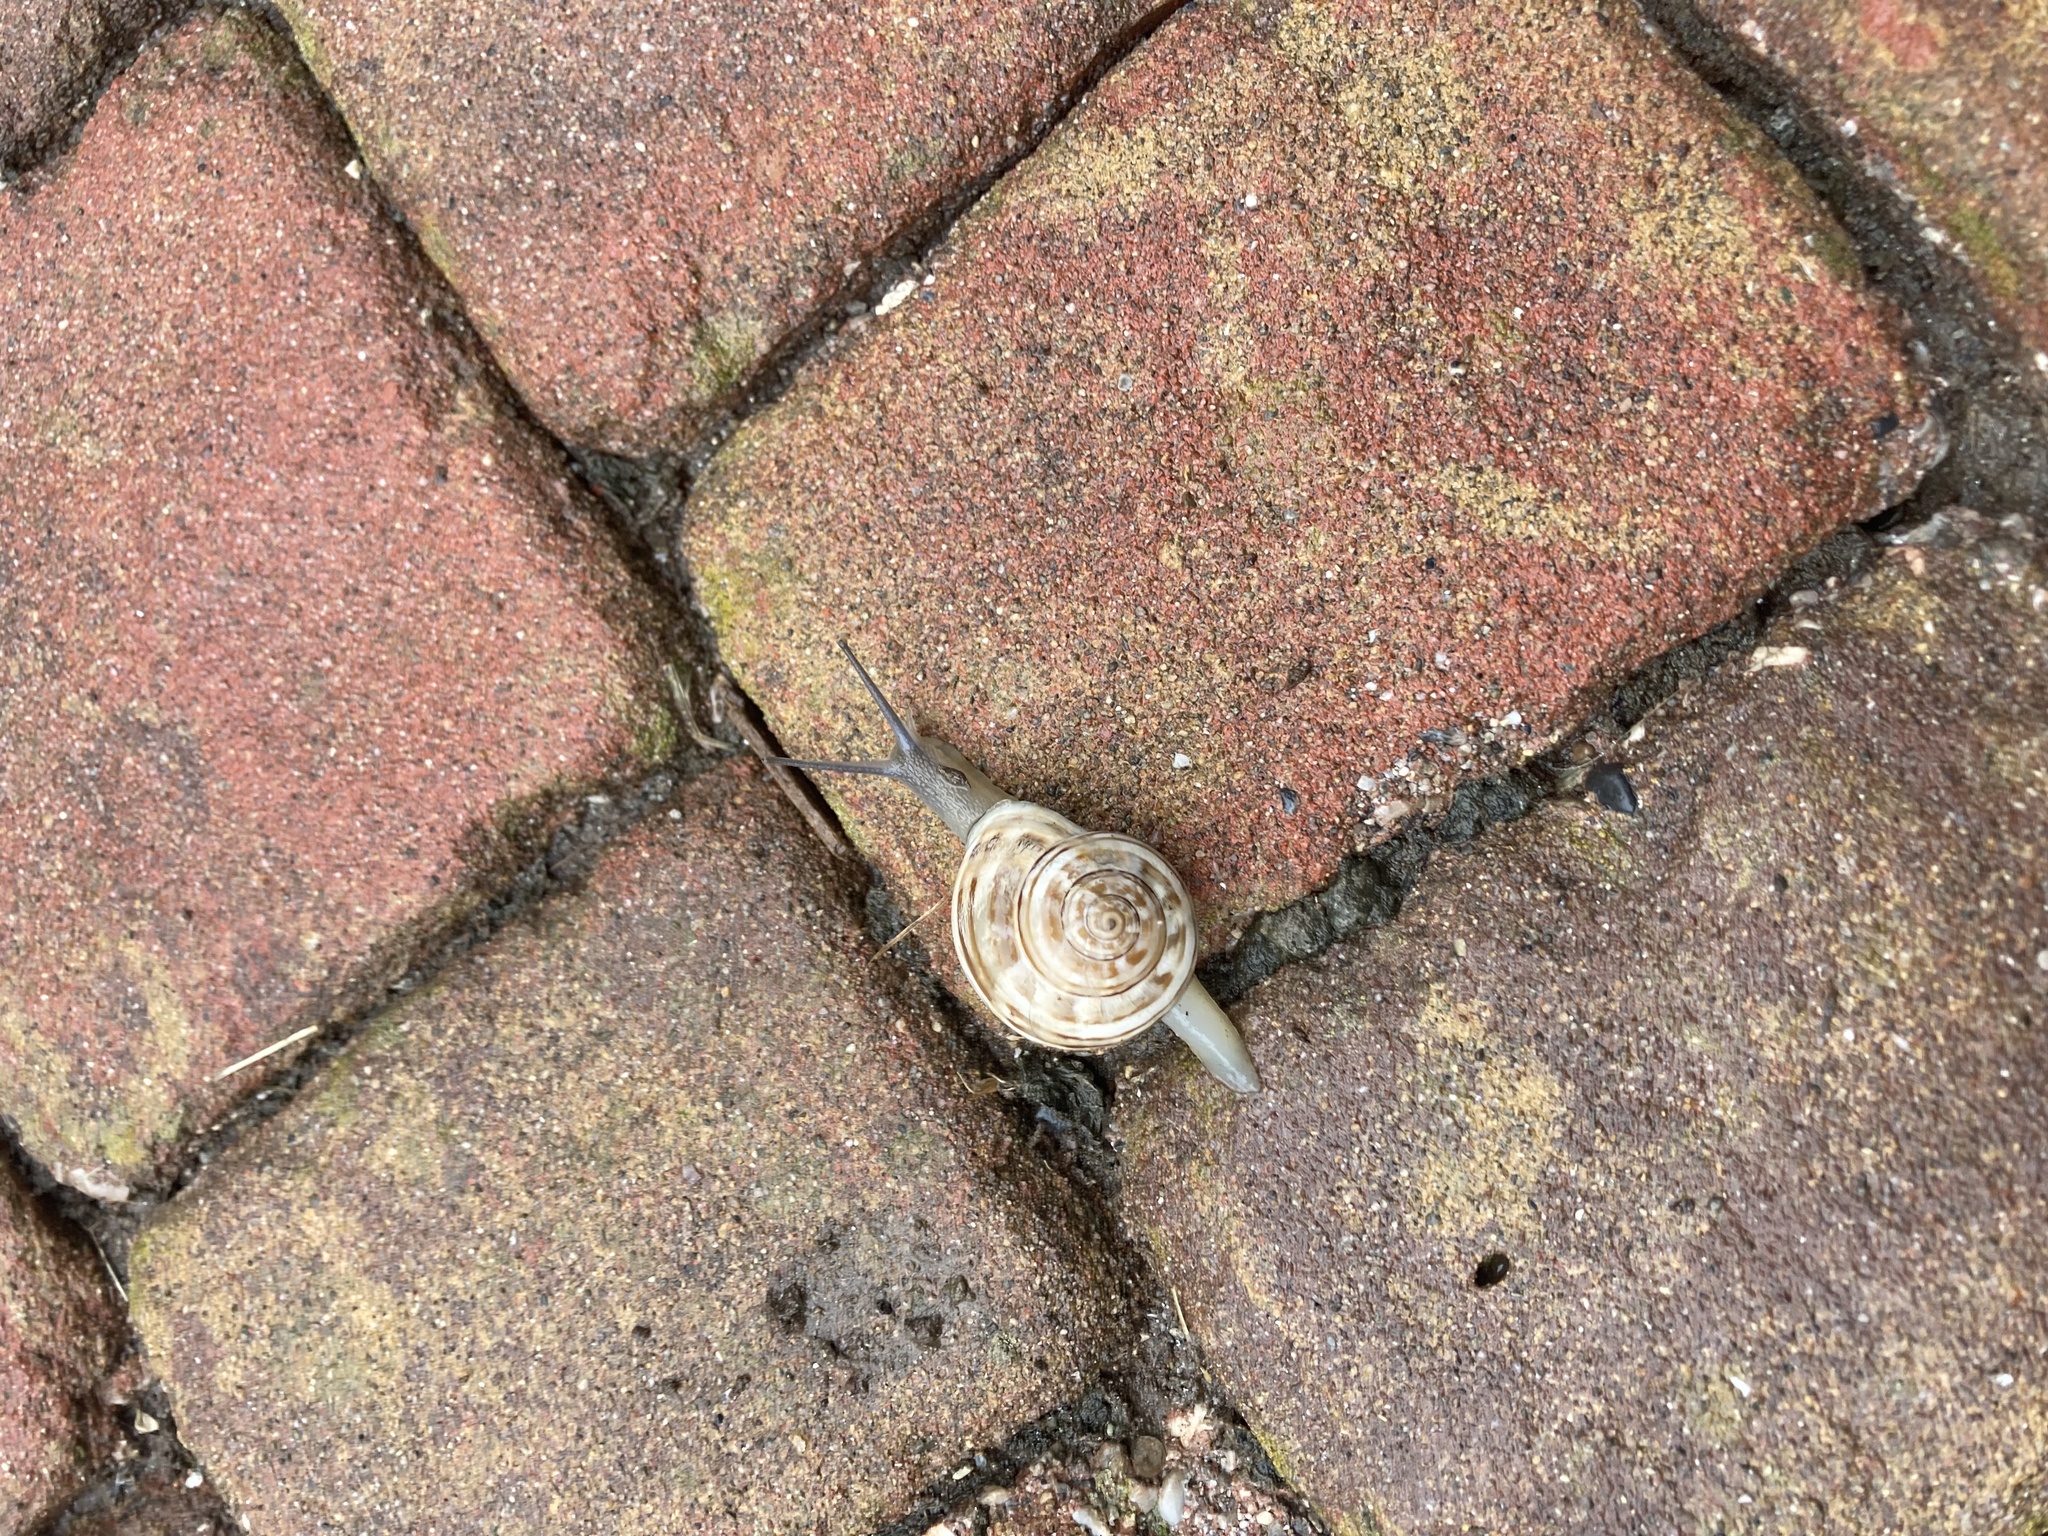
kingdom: Animalia
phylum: Mollusca
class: Gastropoda
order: Stylommatophora
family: Helicidae
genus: Eobania
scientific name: Eobania vermiculata
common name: Chocolateband snail
